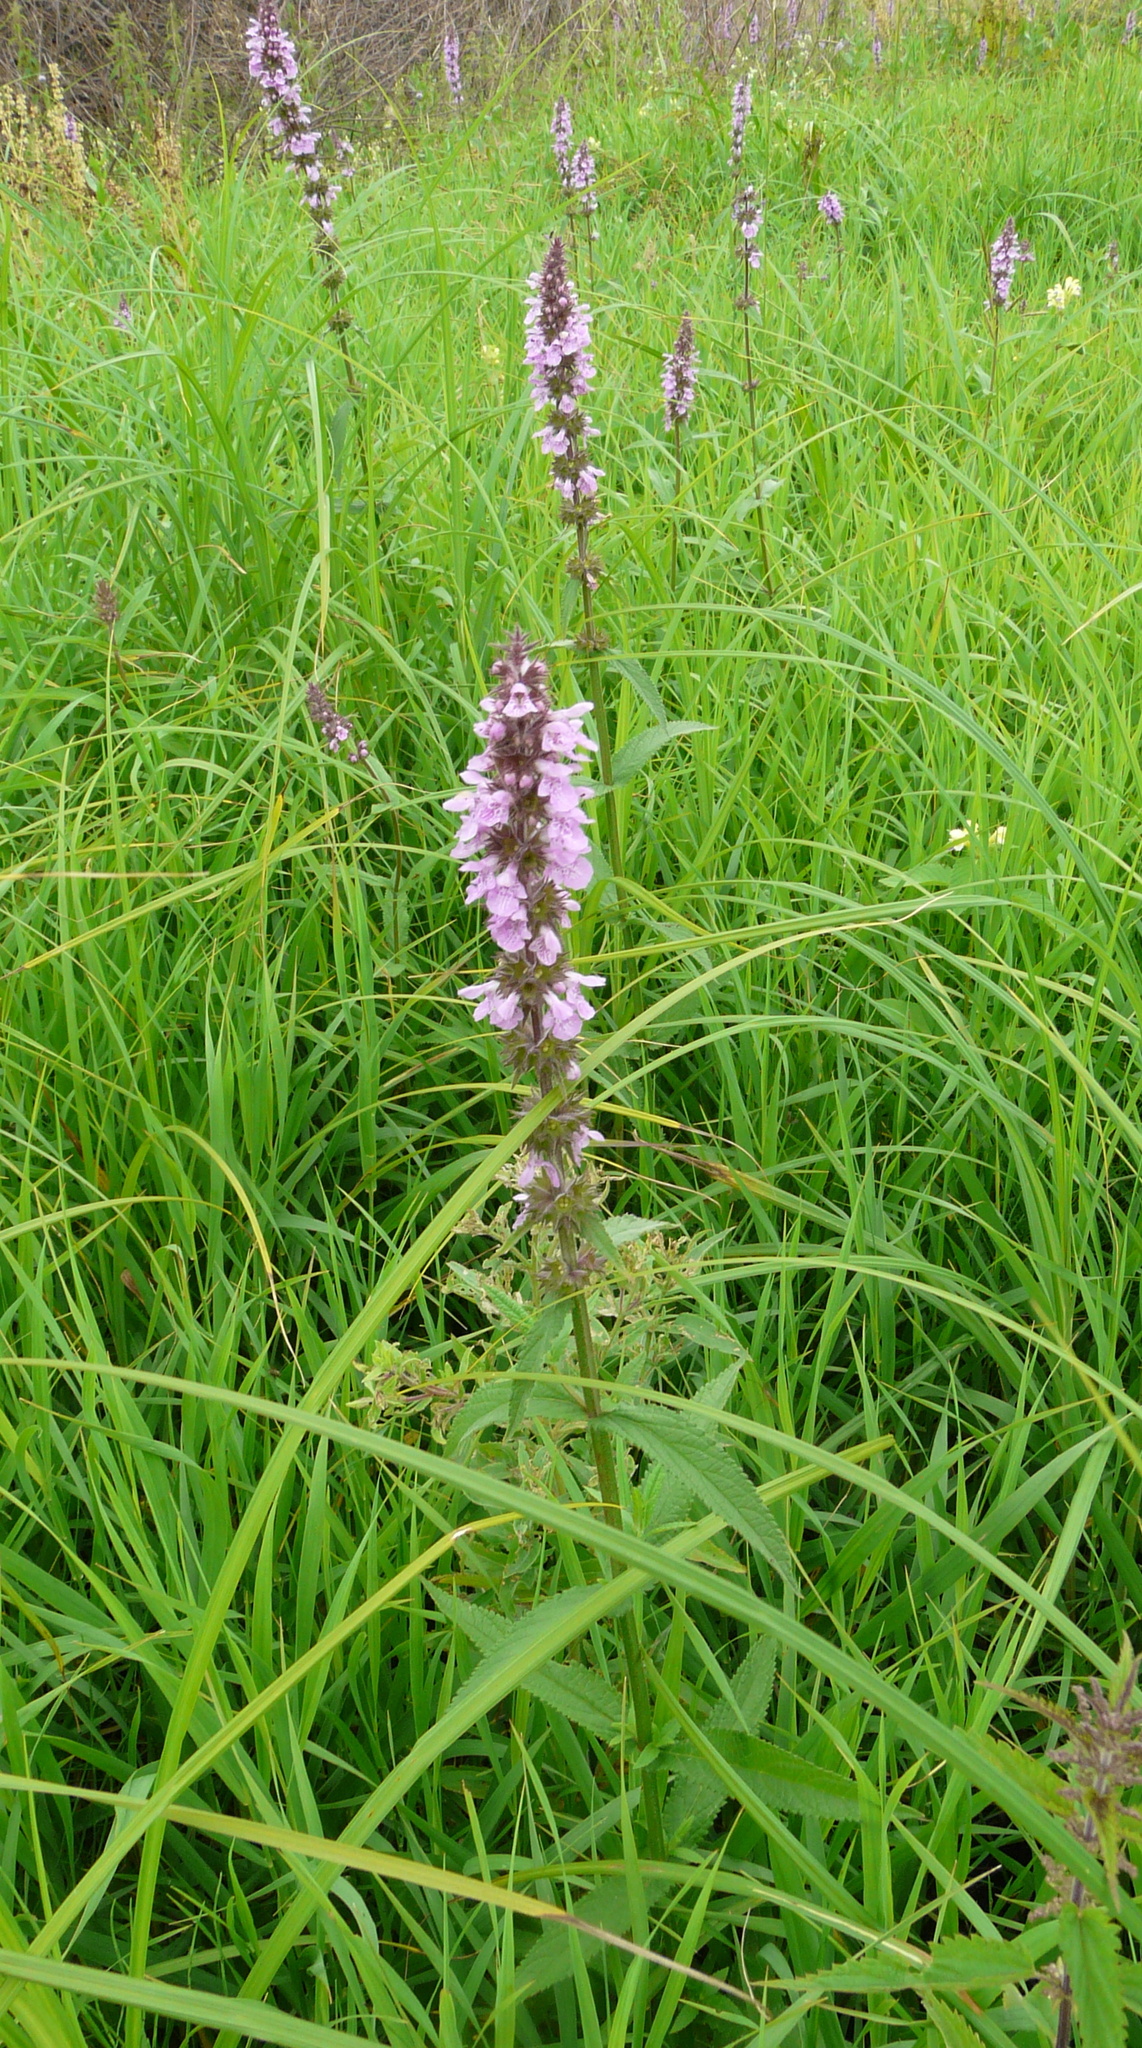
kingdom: Plantae
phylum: Tracheophyta
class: Magnoliopsida
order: Lamiales
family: Lamiaceae
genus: Stachys
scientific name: Stachys palustris
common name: Marsh woundwort
